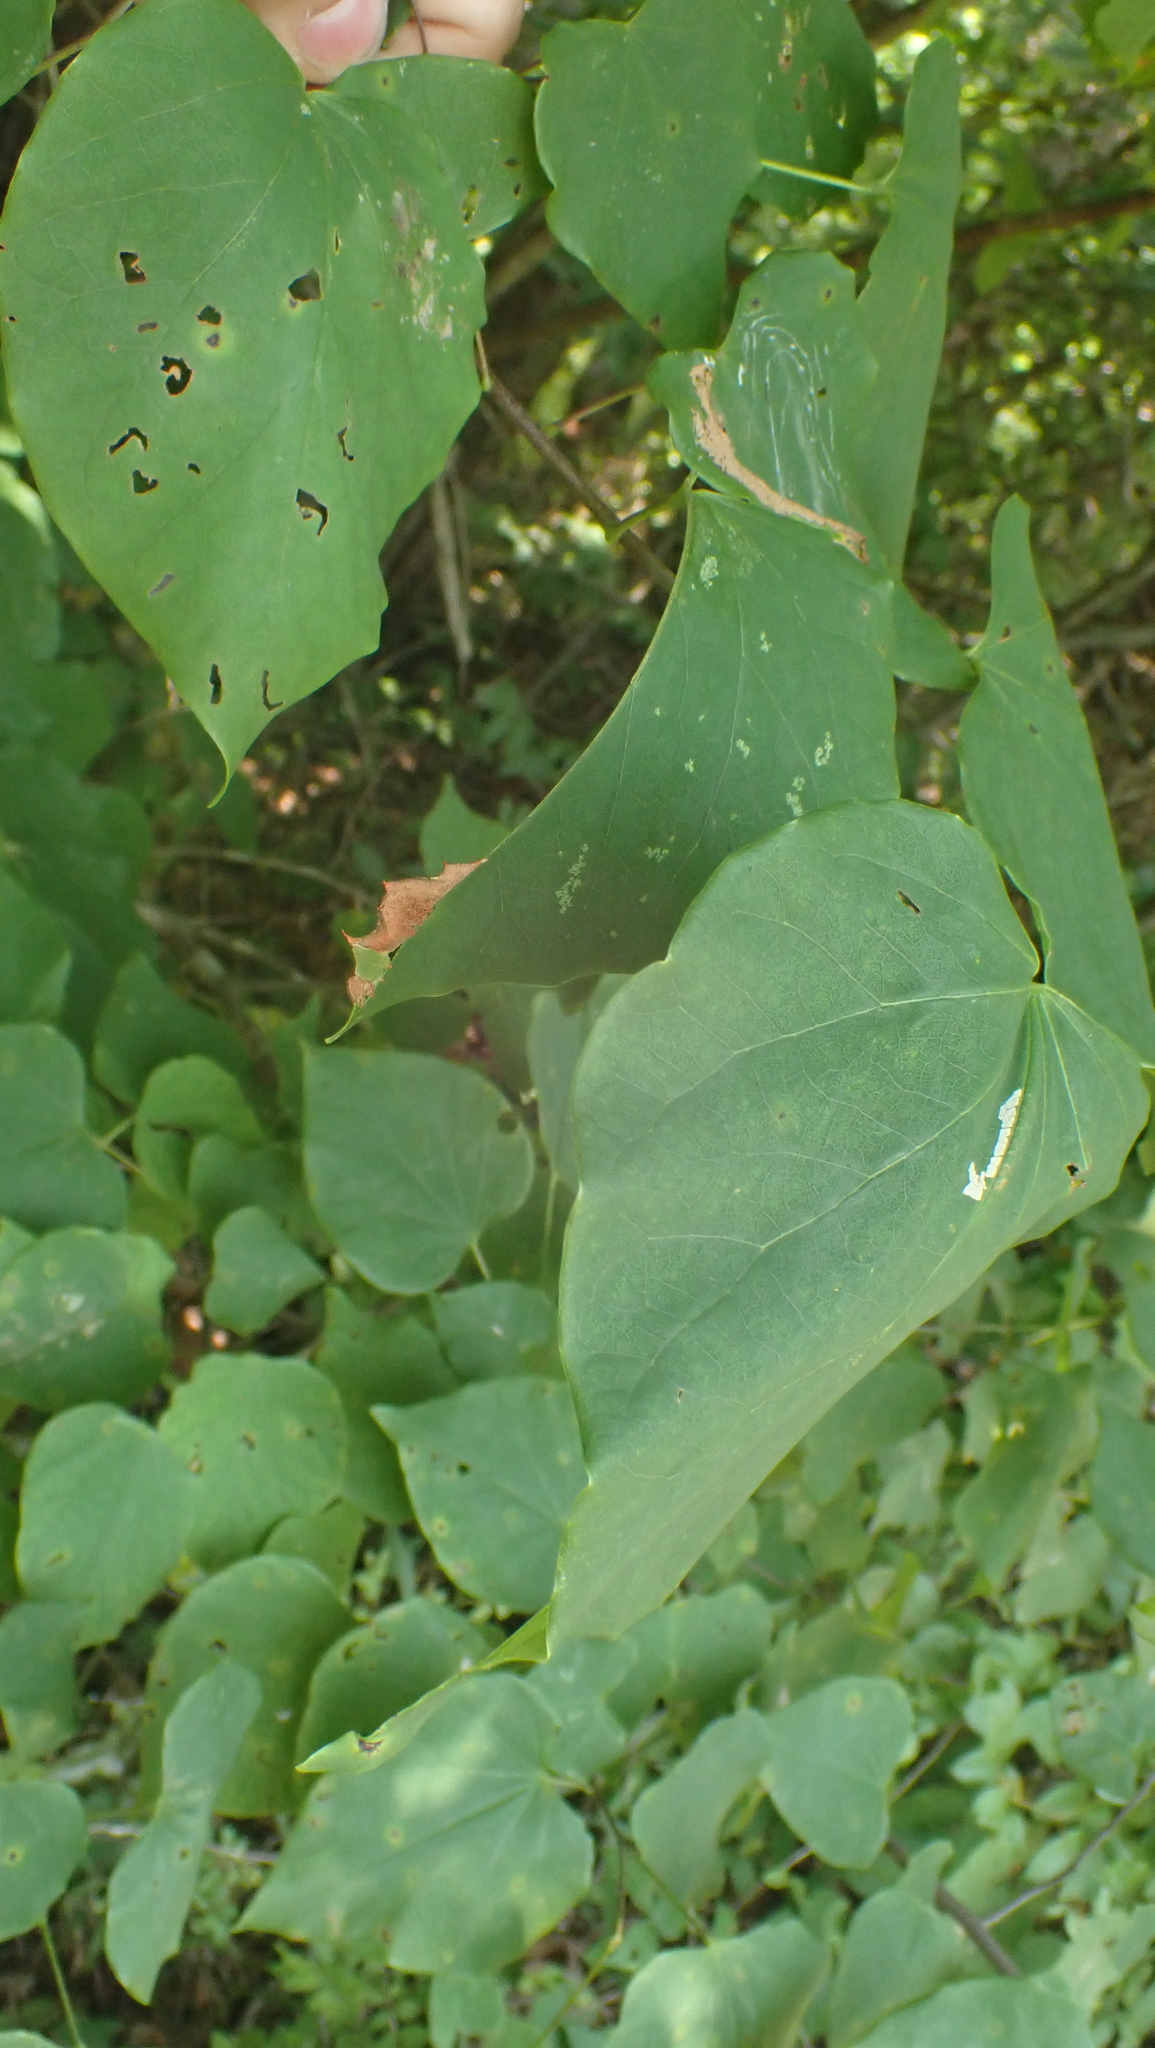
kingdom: Animalia
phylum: Arthropoda
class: Insecta
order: Lepidoptera
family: Notodontidae
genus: Schizura
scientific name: Schizura ipomaeae
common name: Morning-glory prominent
